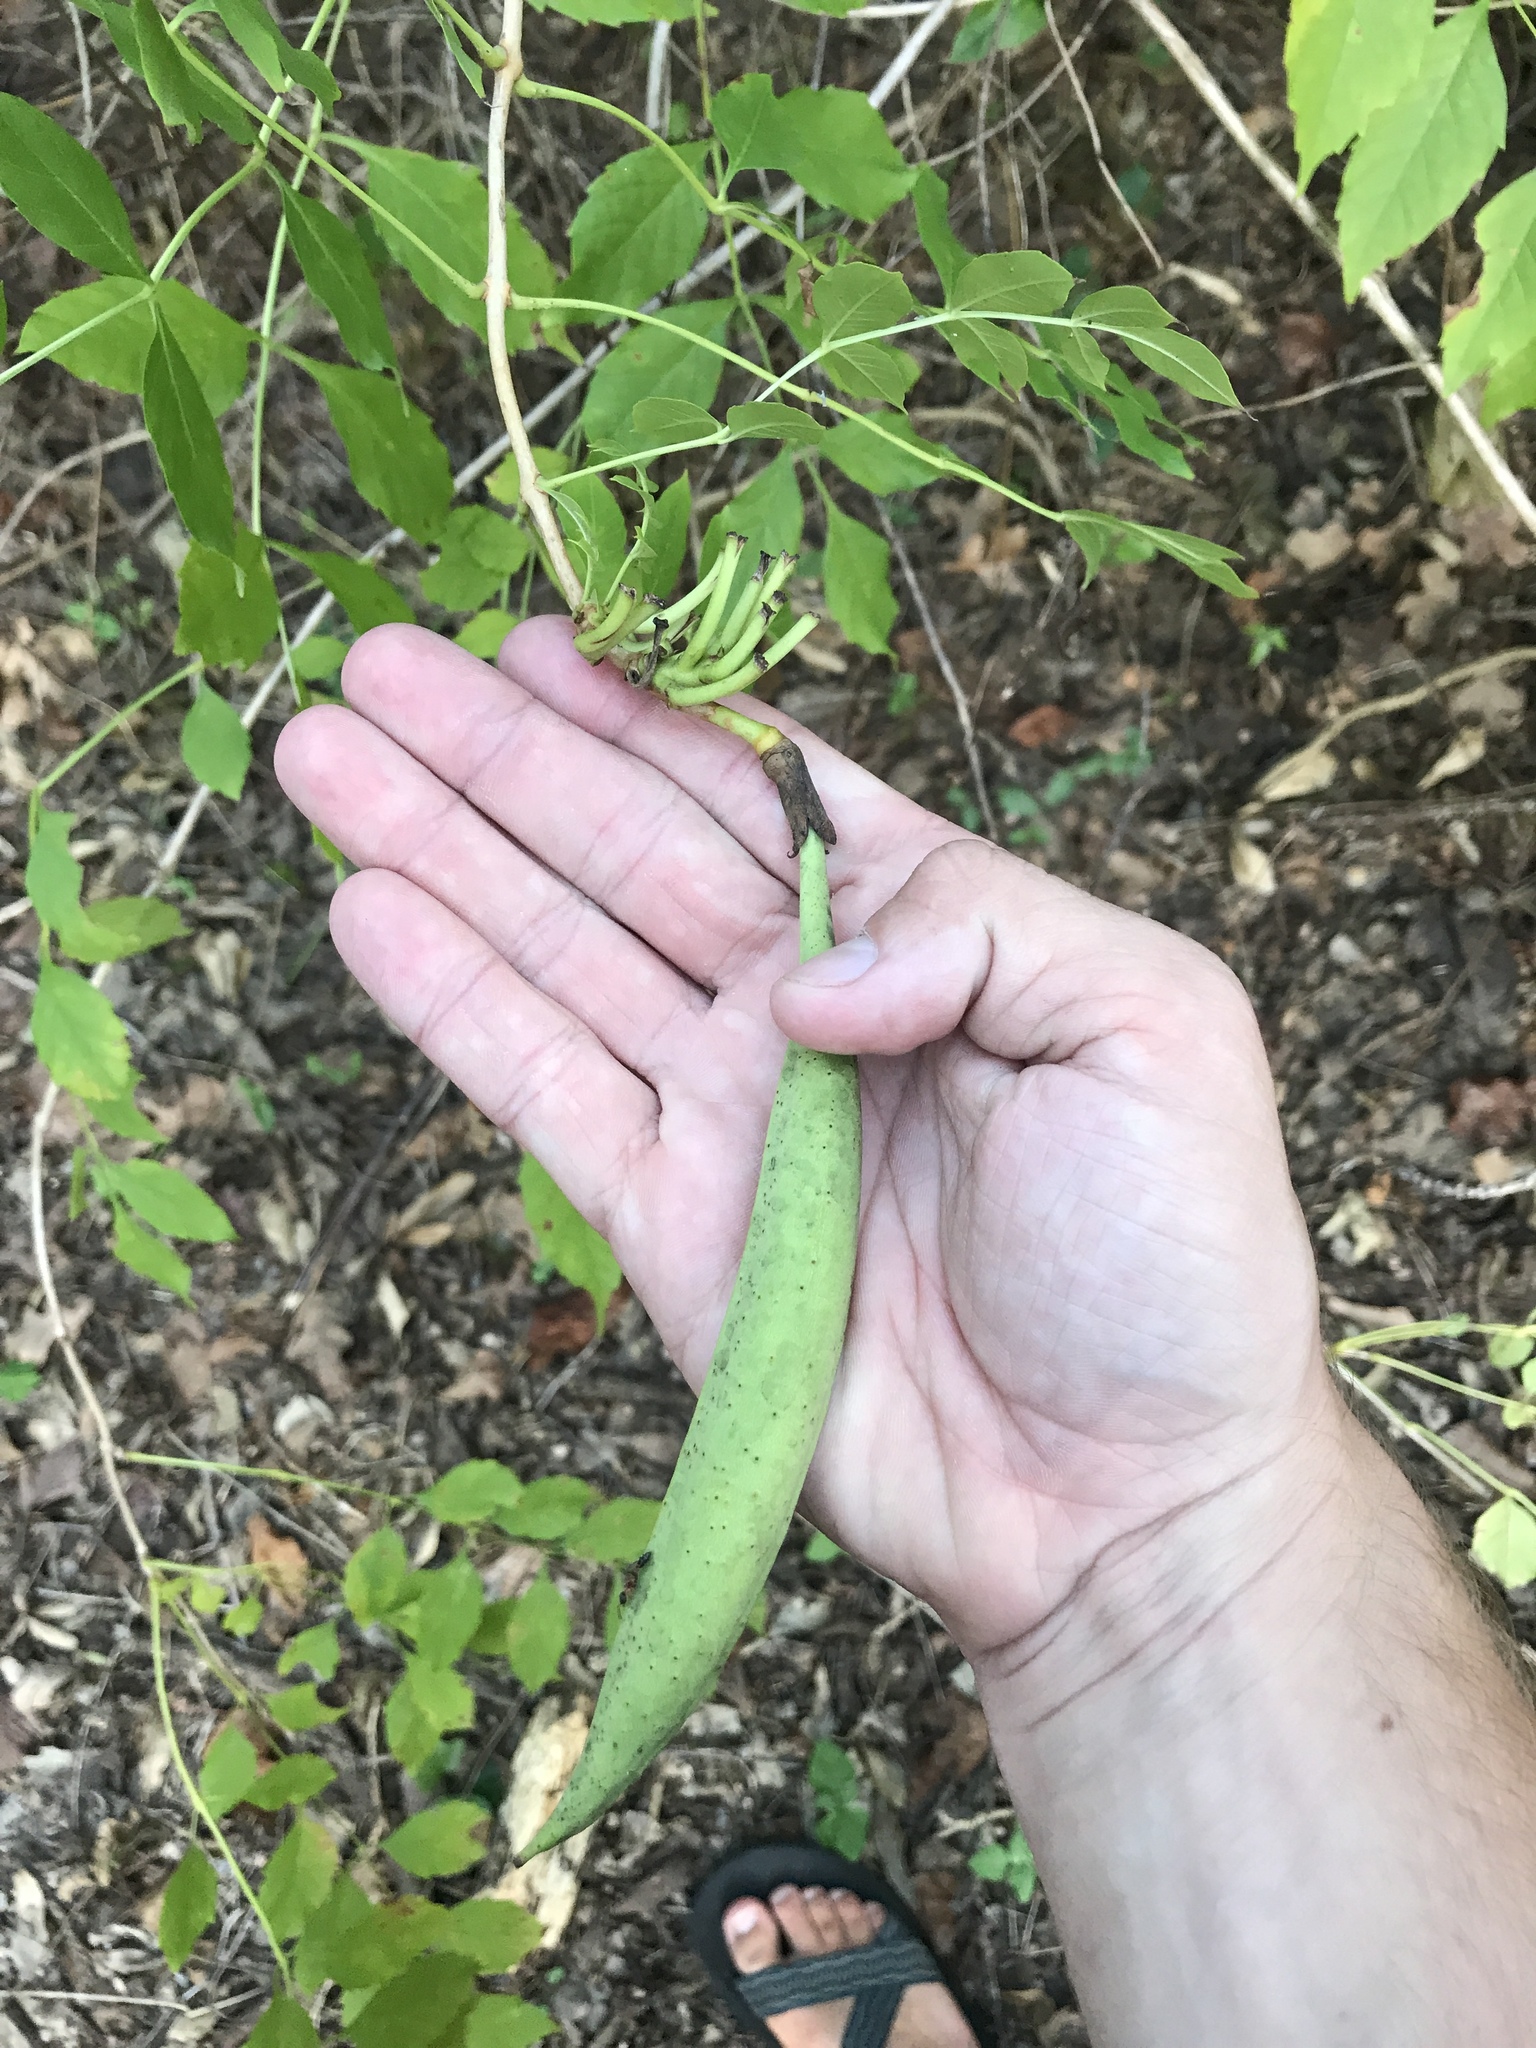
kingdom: Plantae
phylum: Tracheophyta
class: Magnoliopsida
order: Lamiales
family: Bignoniaceae
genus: Campsis
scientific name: Campsis radicans
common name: Trumpet-creeper
